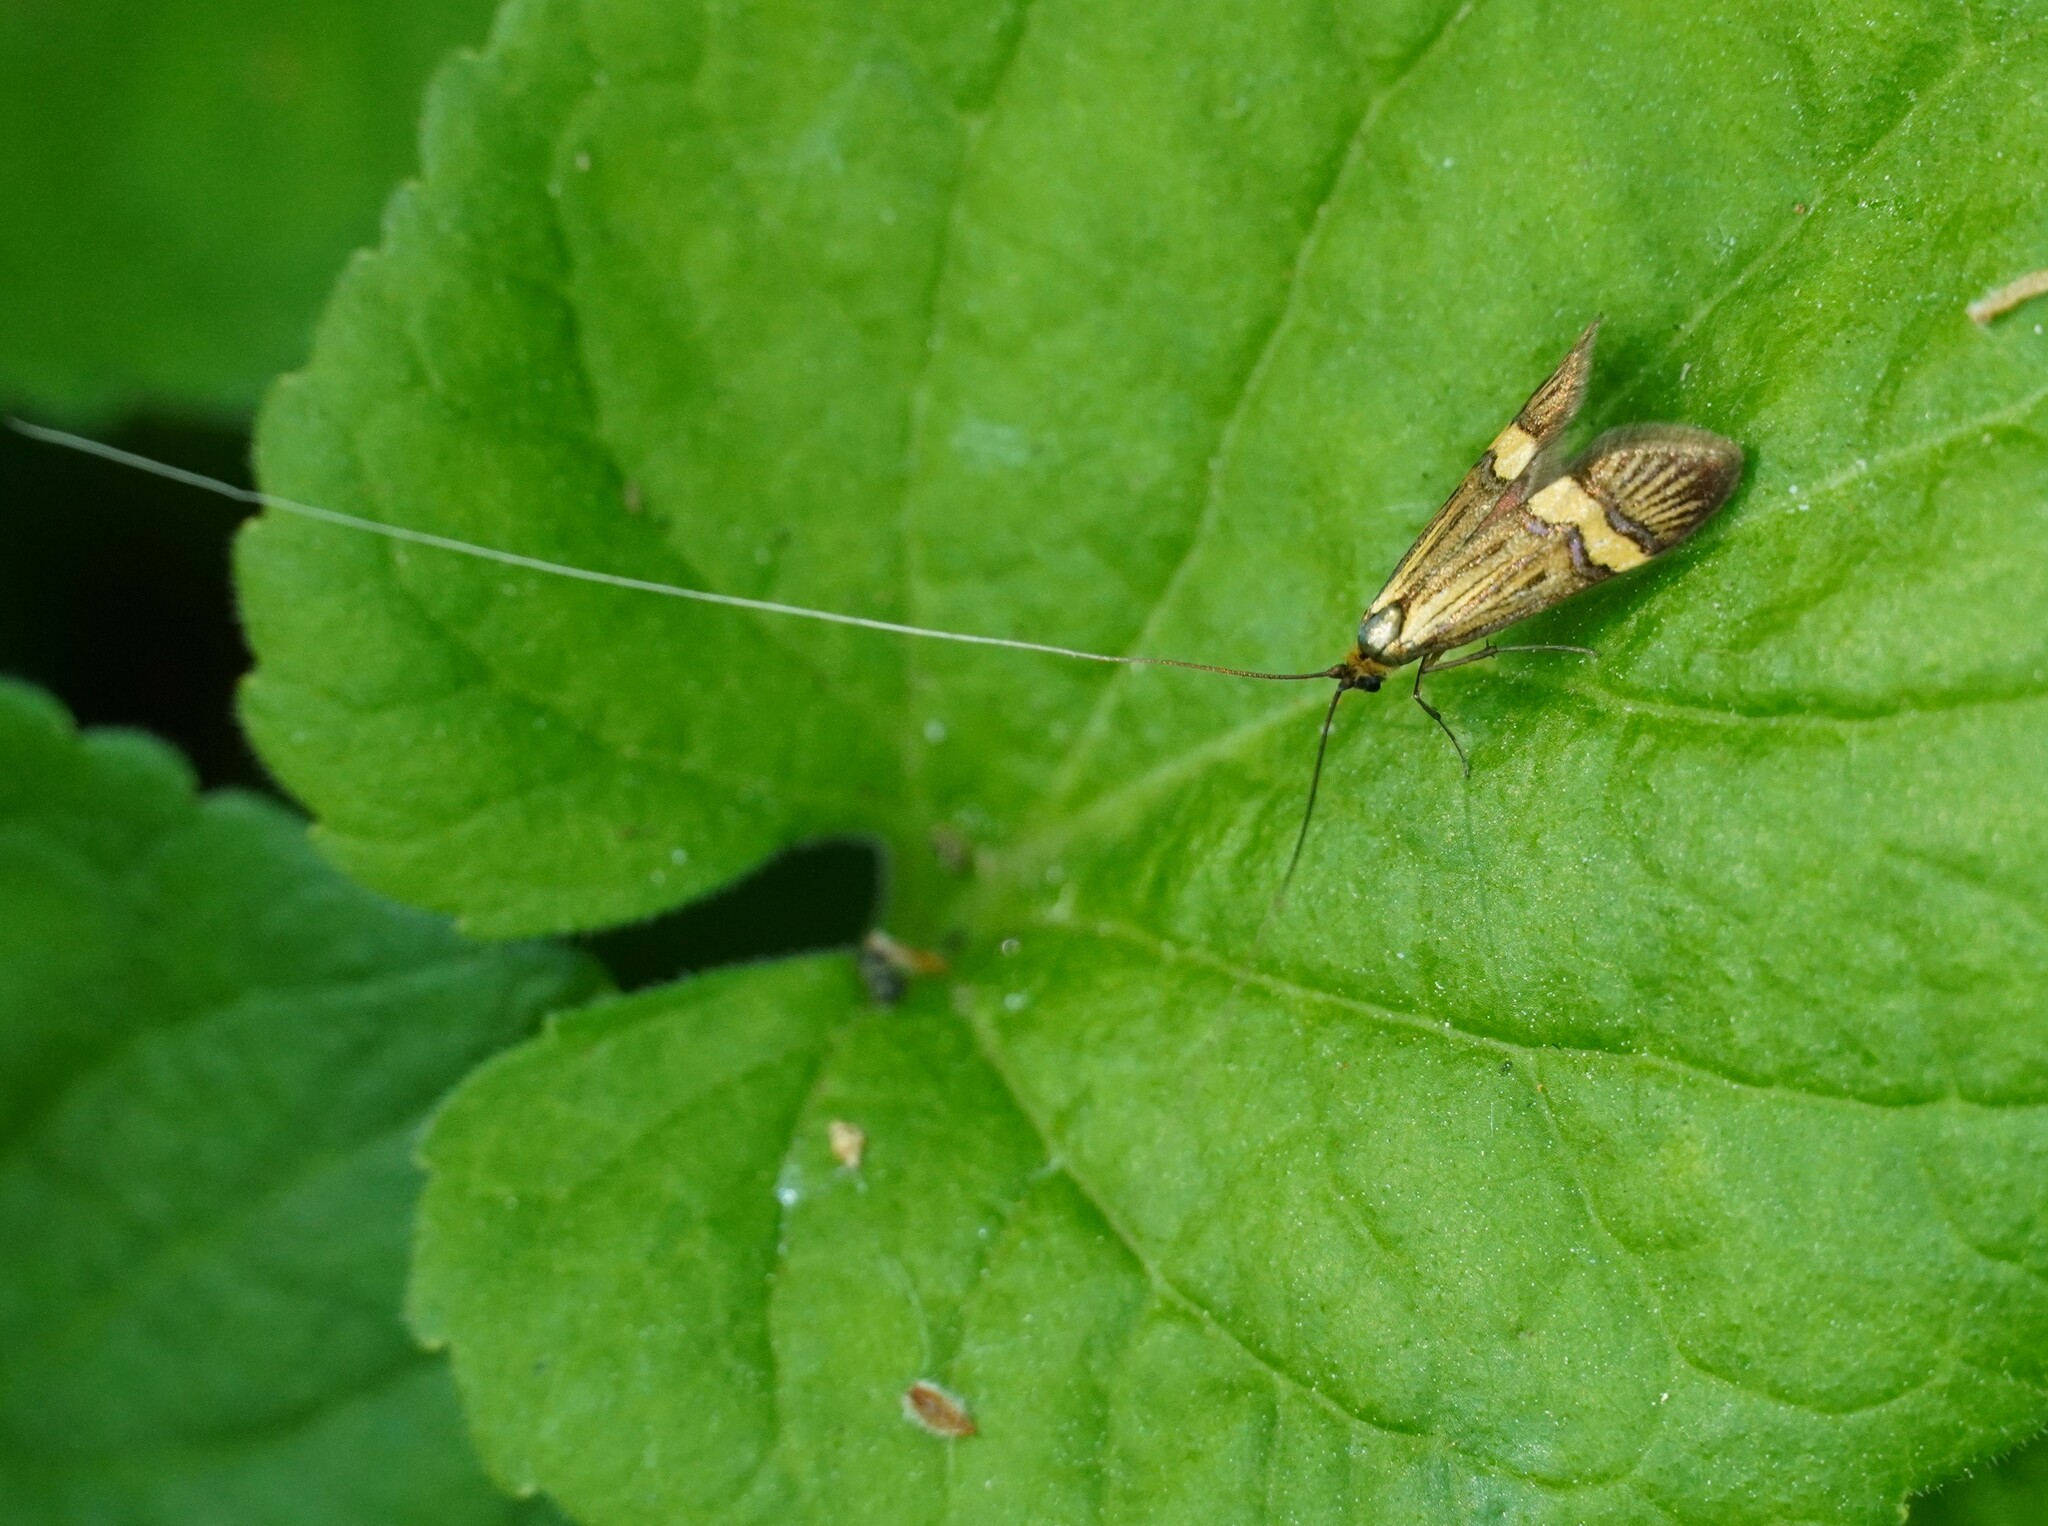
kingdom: Animalia
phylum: Arthropoda
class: Insecta
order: Lepidoptera
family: Adelidae
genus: Nemophora
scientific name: Nemophora
